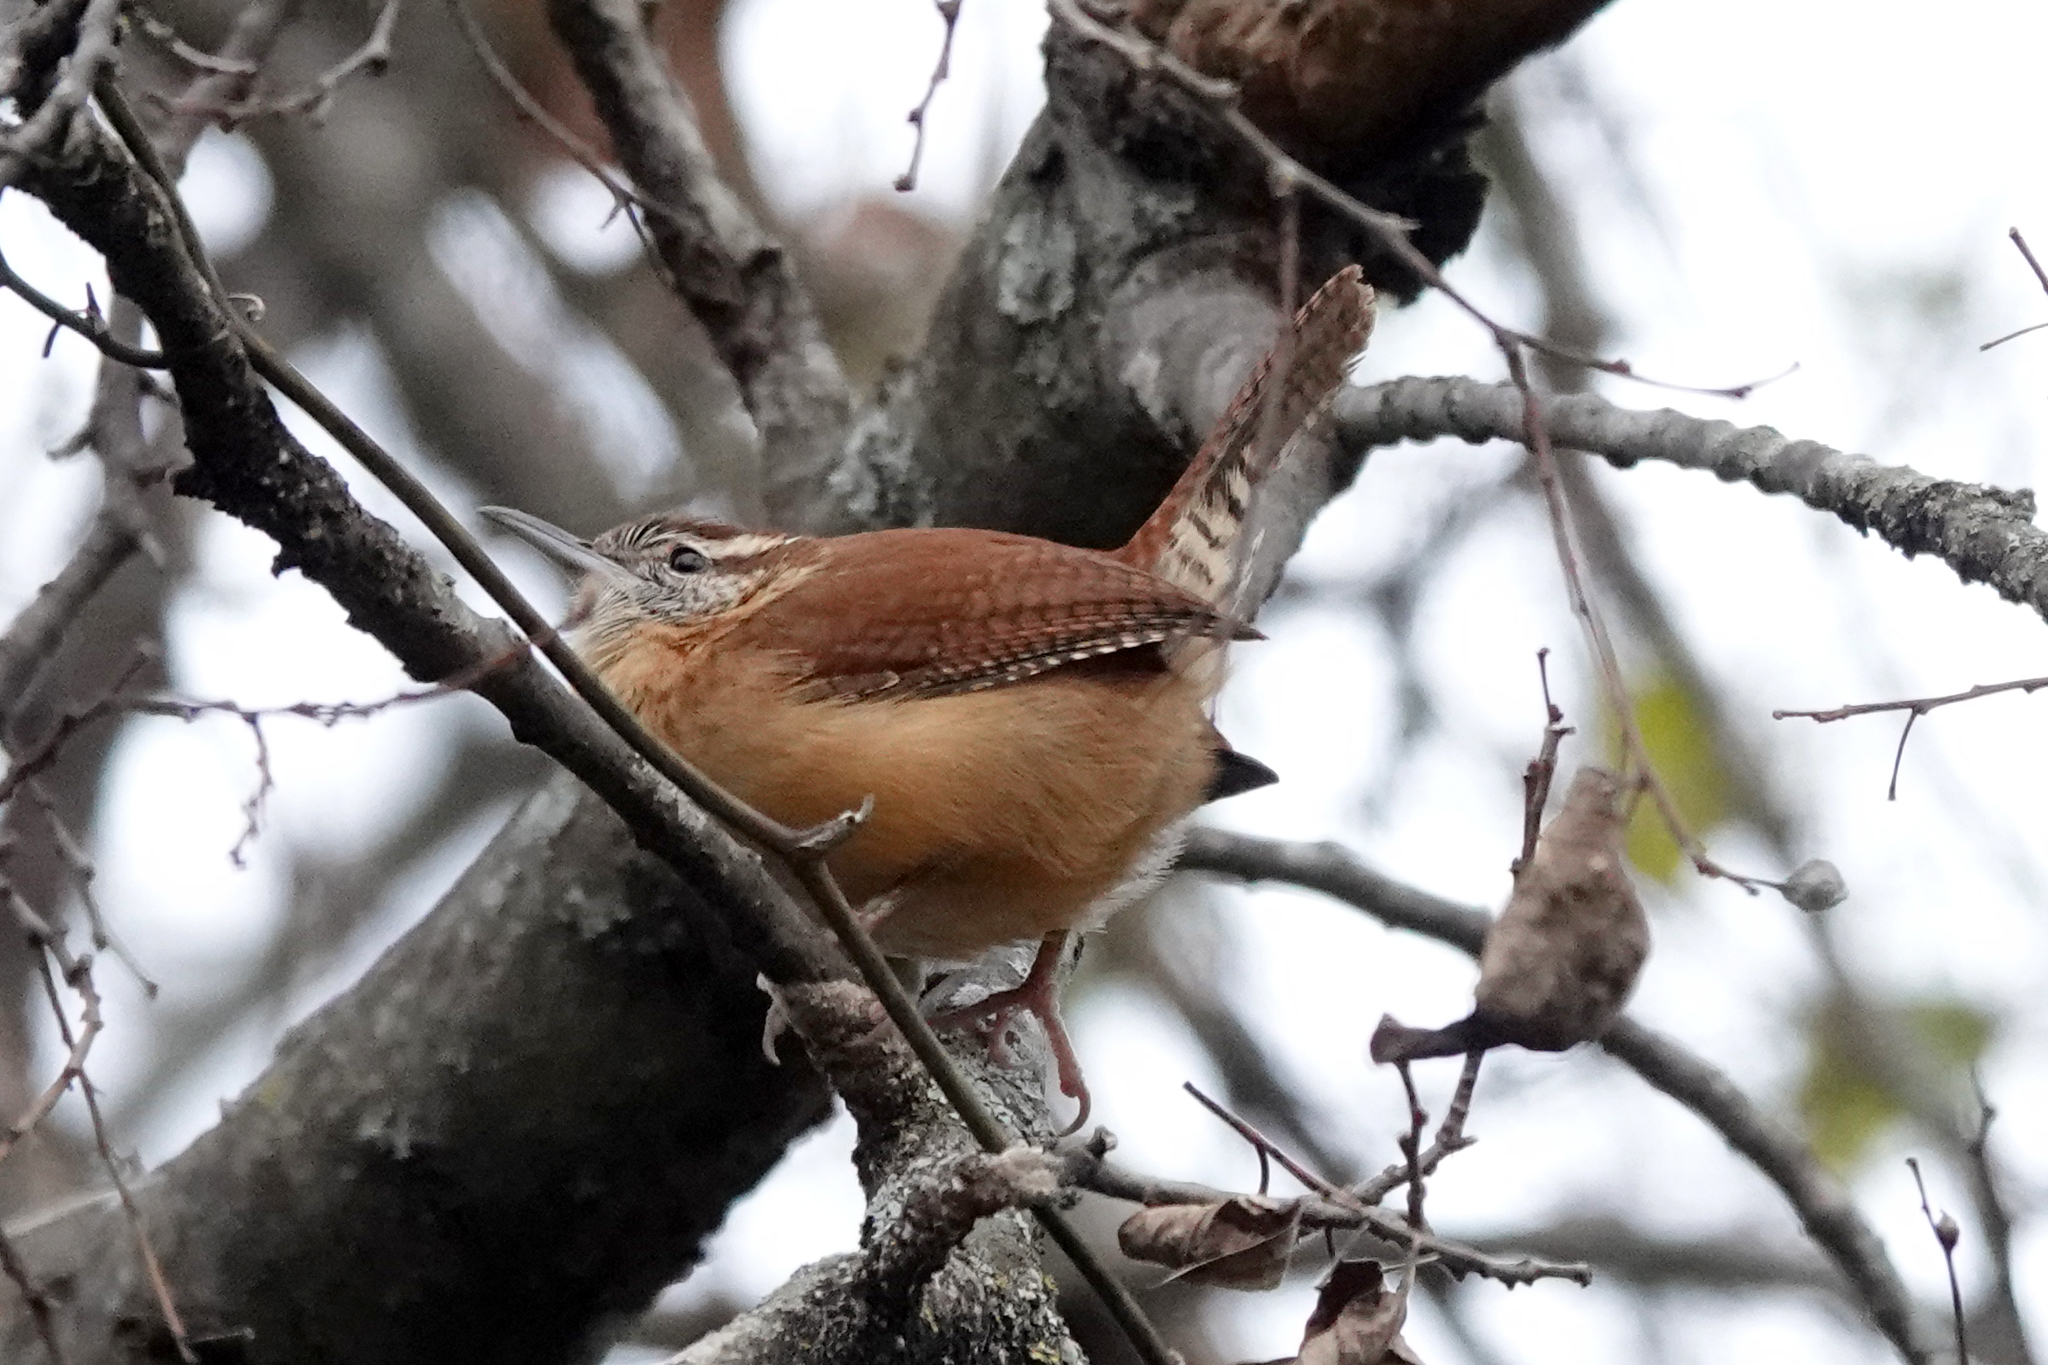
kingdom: Animalia
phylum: Chordata
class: Aves
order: Passeriformes
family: Troglodytidae
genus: Thryothorus
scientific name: Thryothorus ludovicianus
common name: Carolina wren
